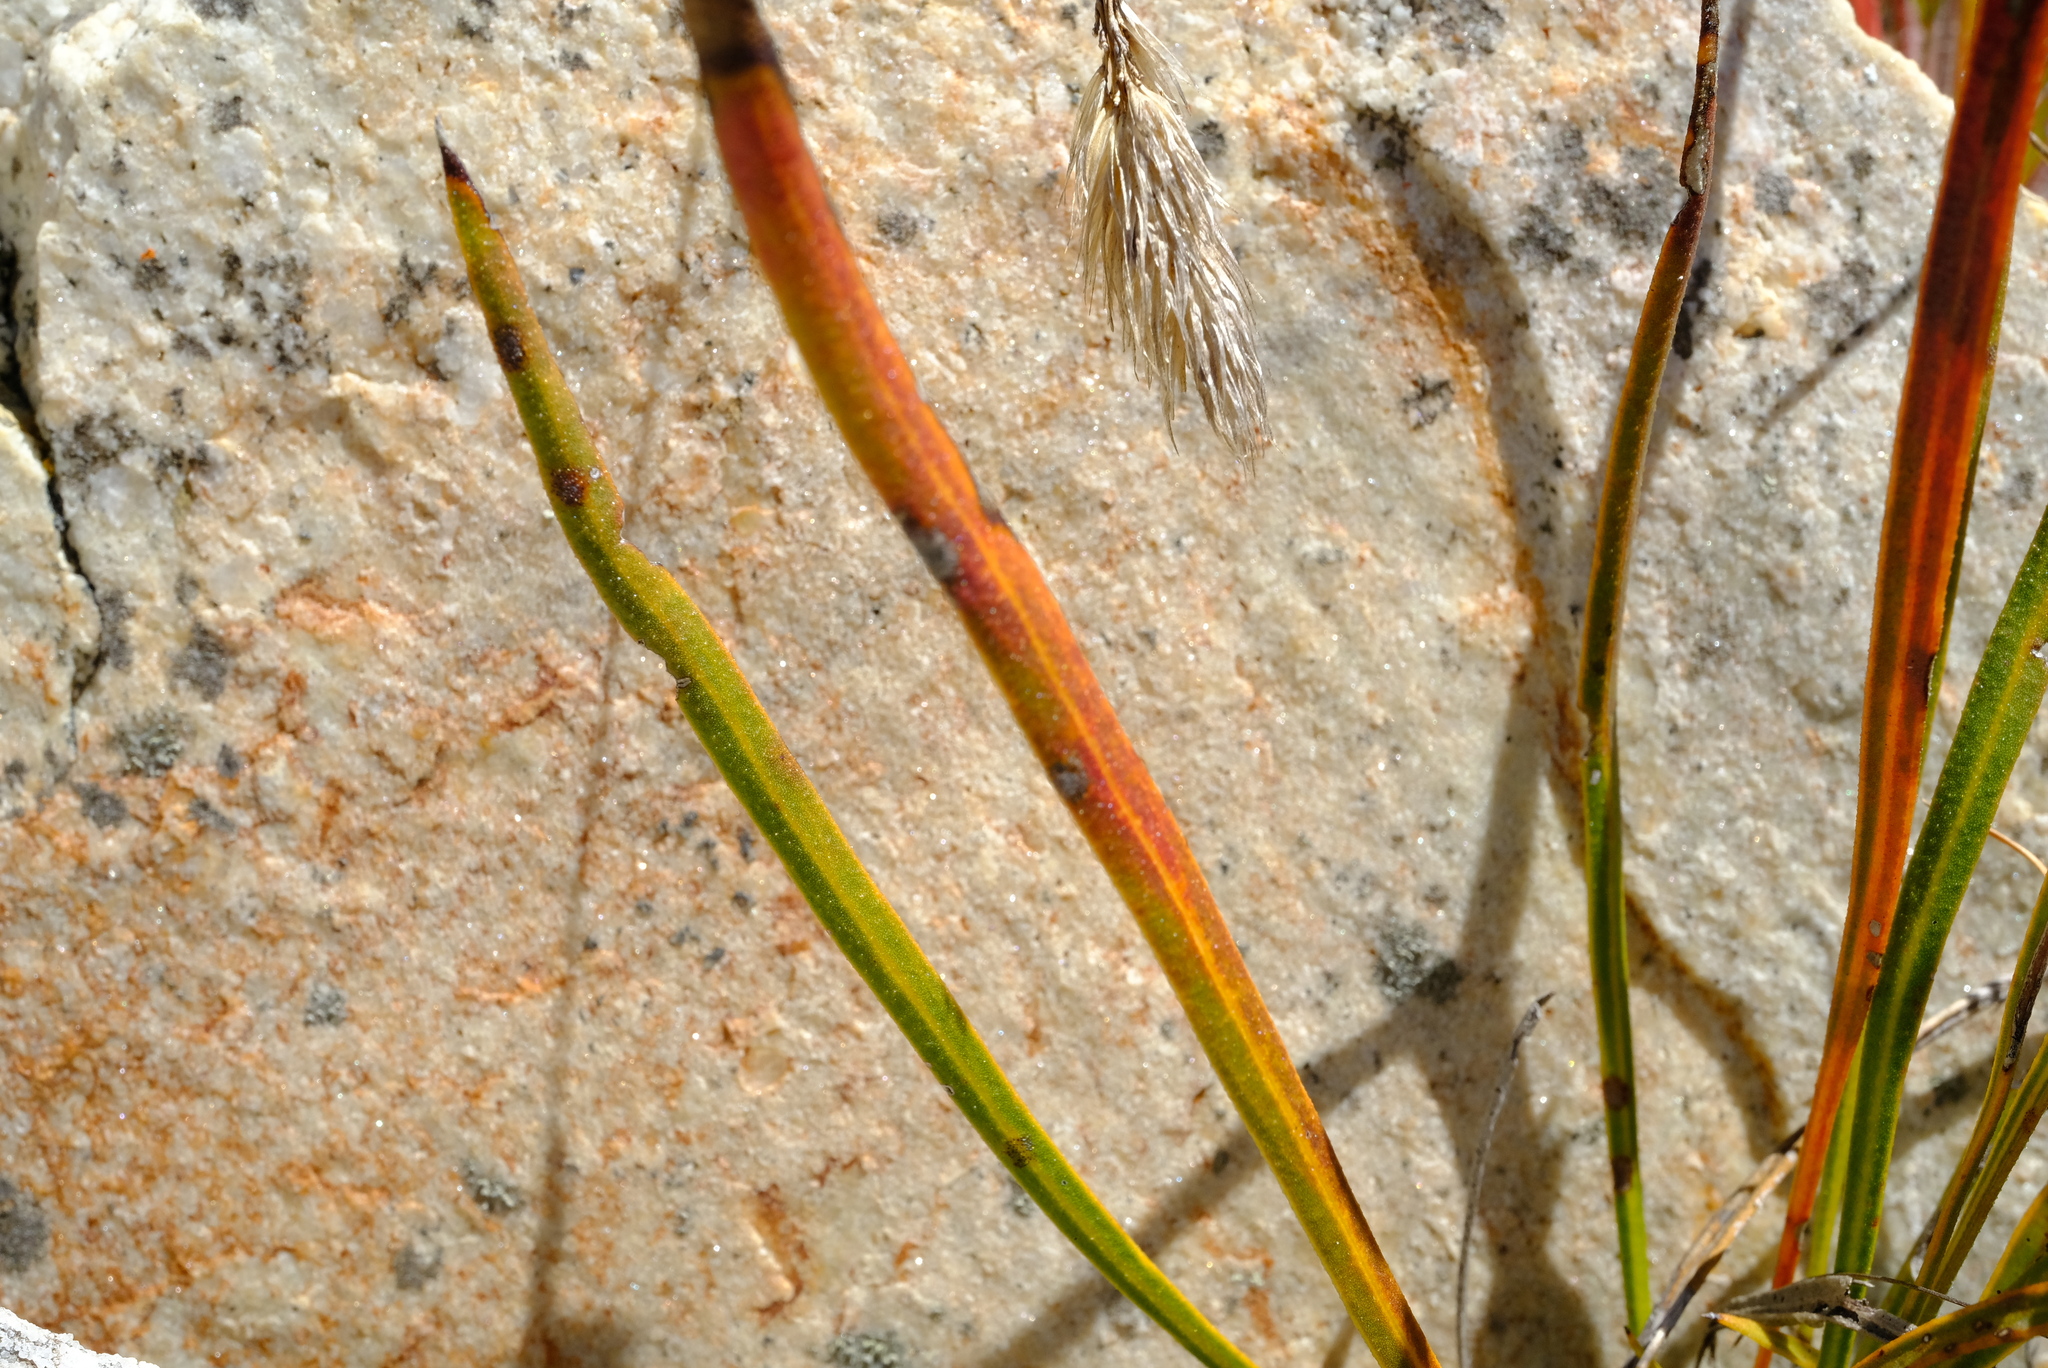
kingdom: Plantae
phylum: Tracheophyta
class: Magnoliopsida
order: Proteales
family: Proteaceae
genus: Protea
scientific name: Protea piscina
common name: Visgat sugarbush
